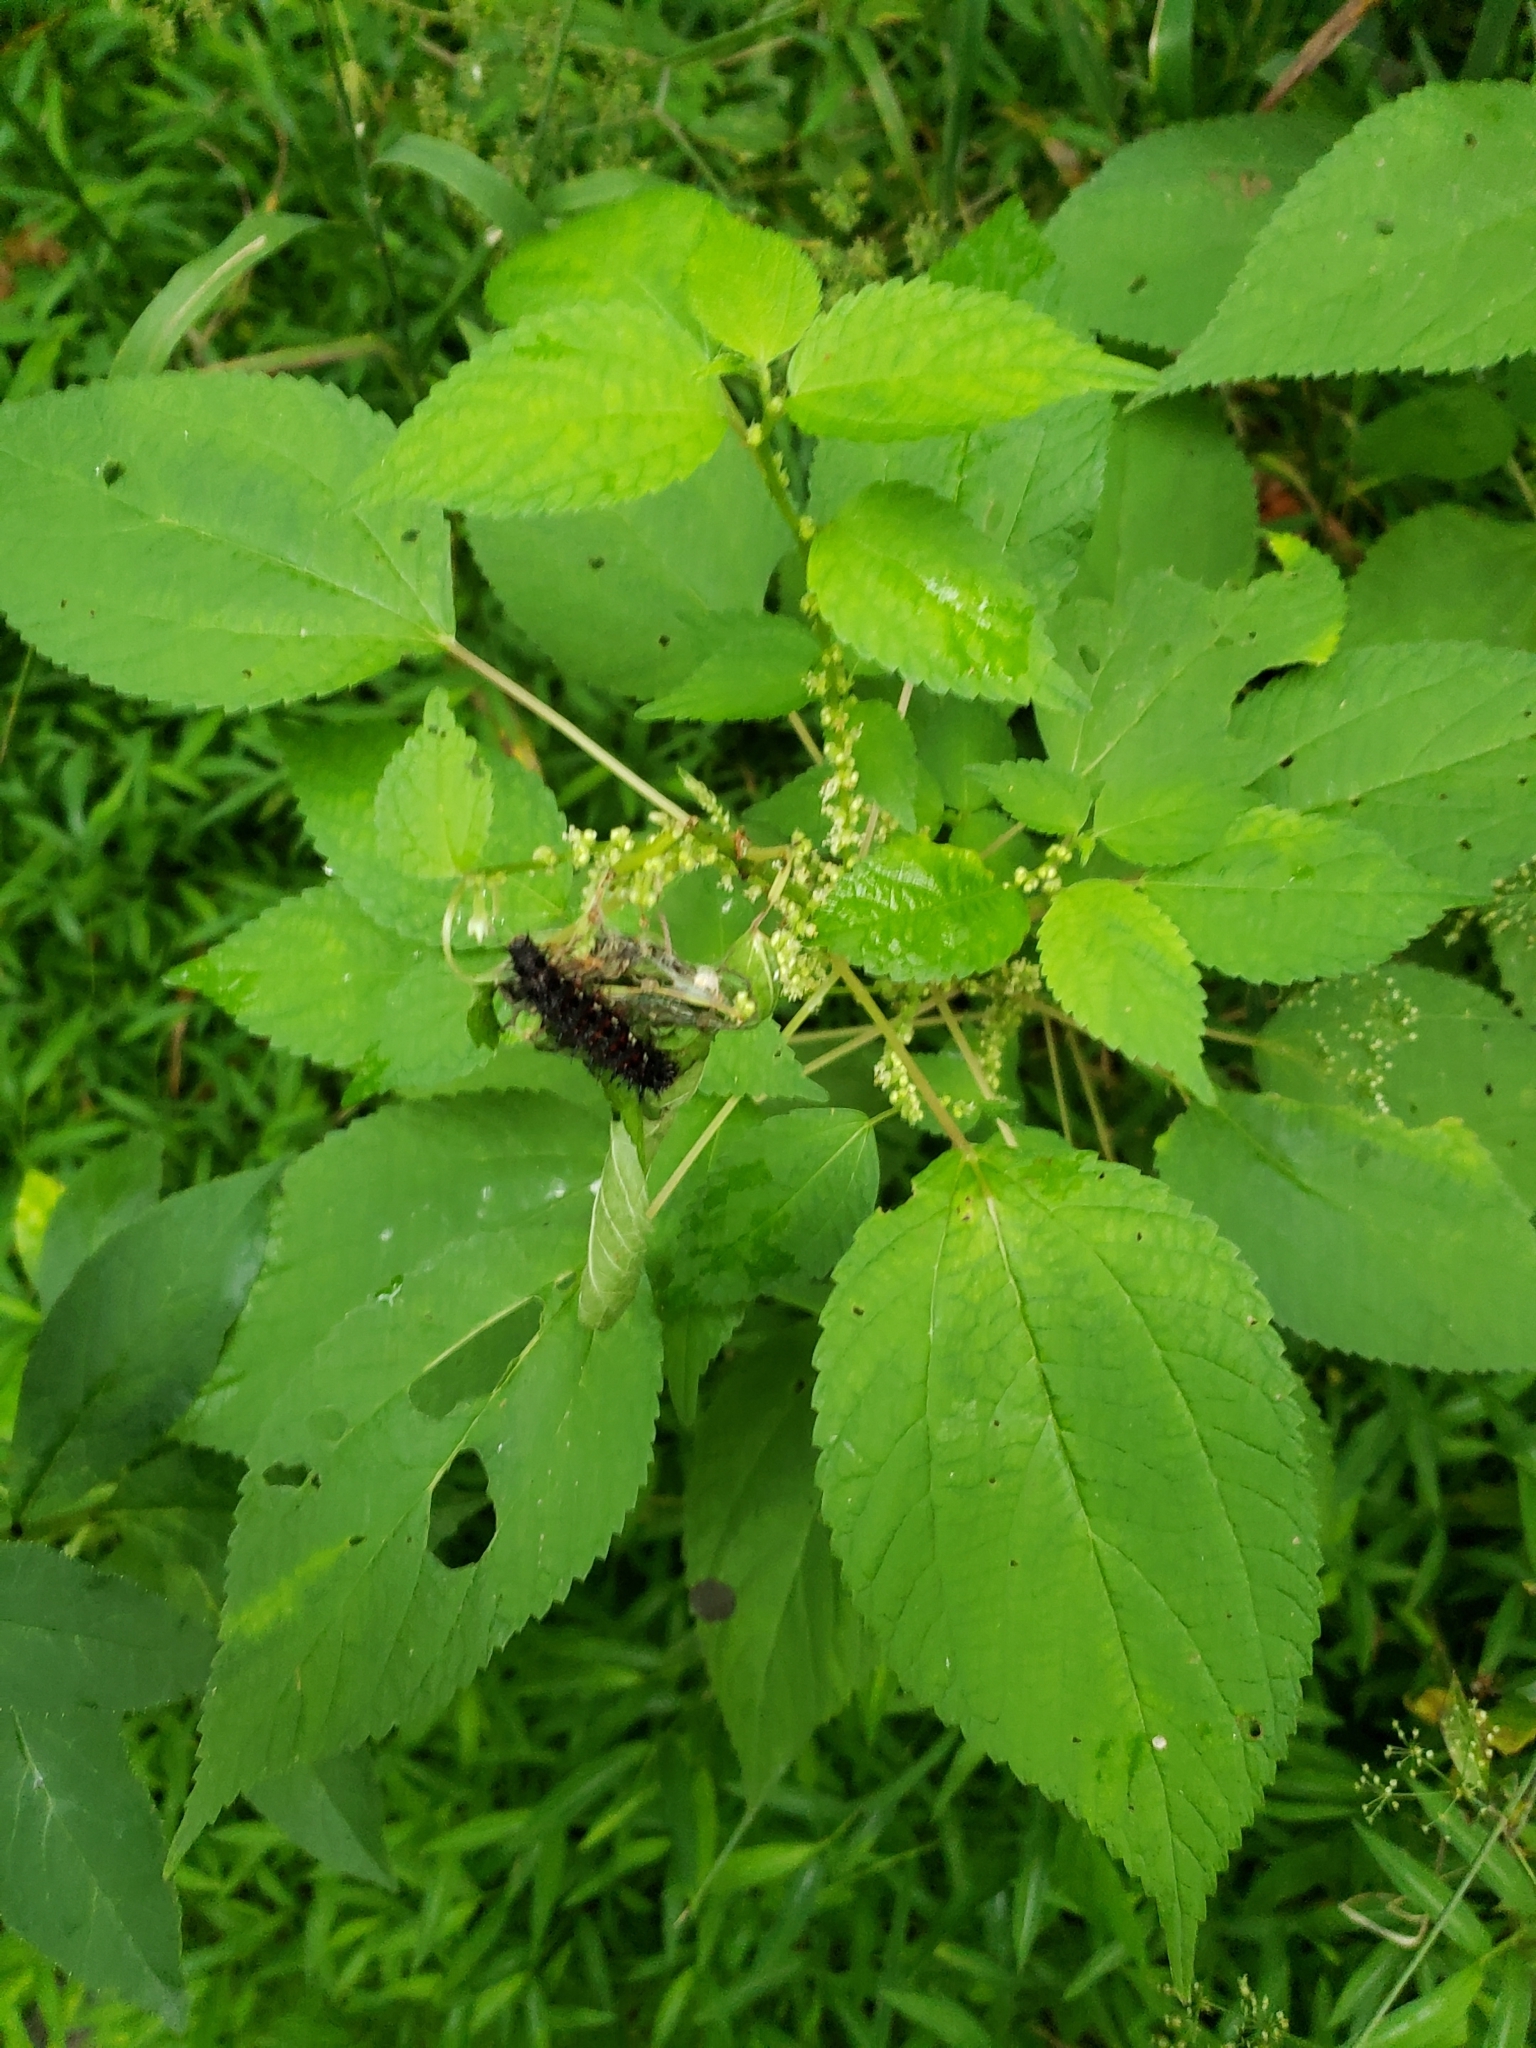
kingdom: Animalia
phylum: Arthropoda
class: Insecta
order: Lepidoptera
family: Nymphalidae
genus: Vanessa
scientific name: Vanessa atalanta
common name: Red admiral
